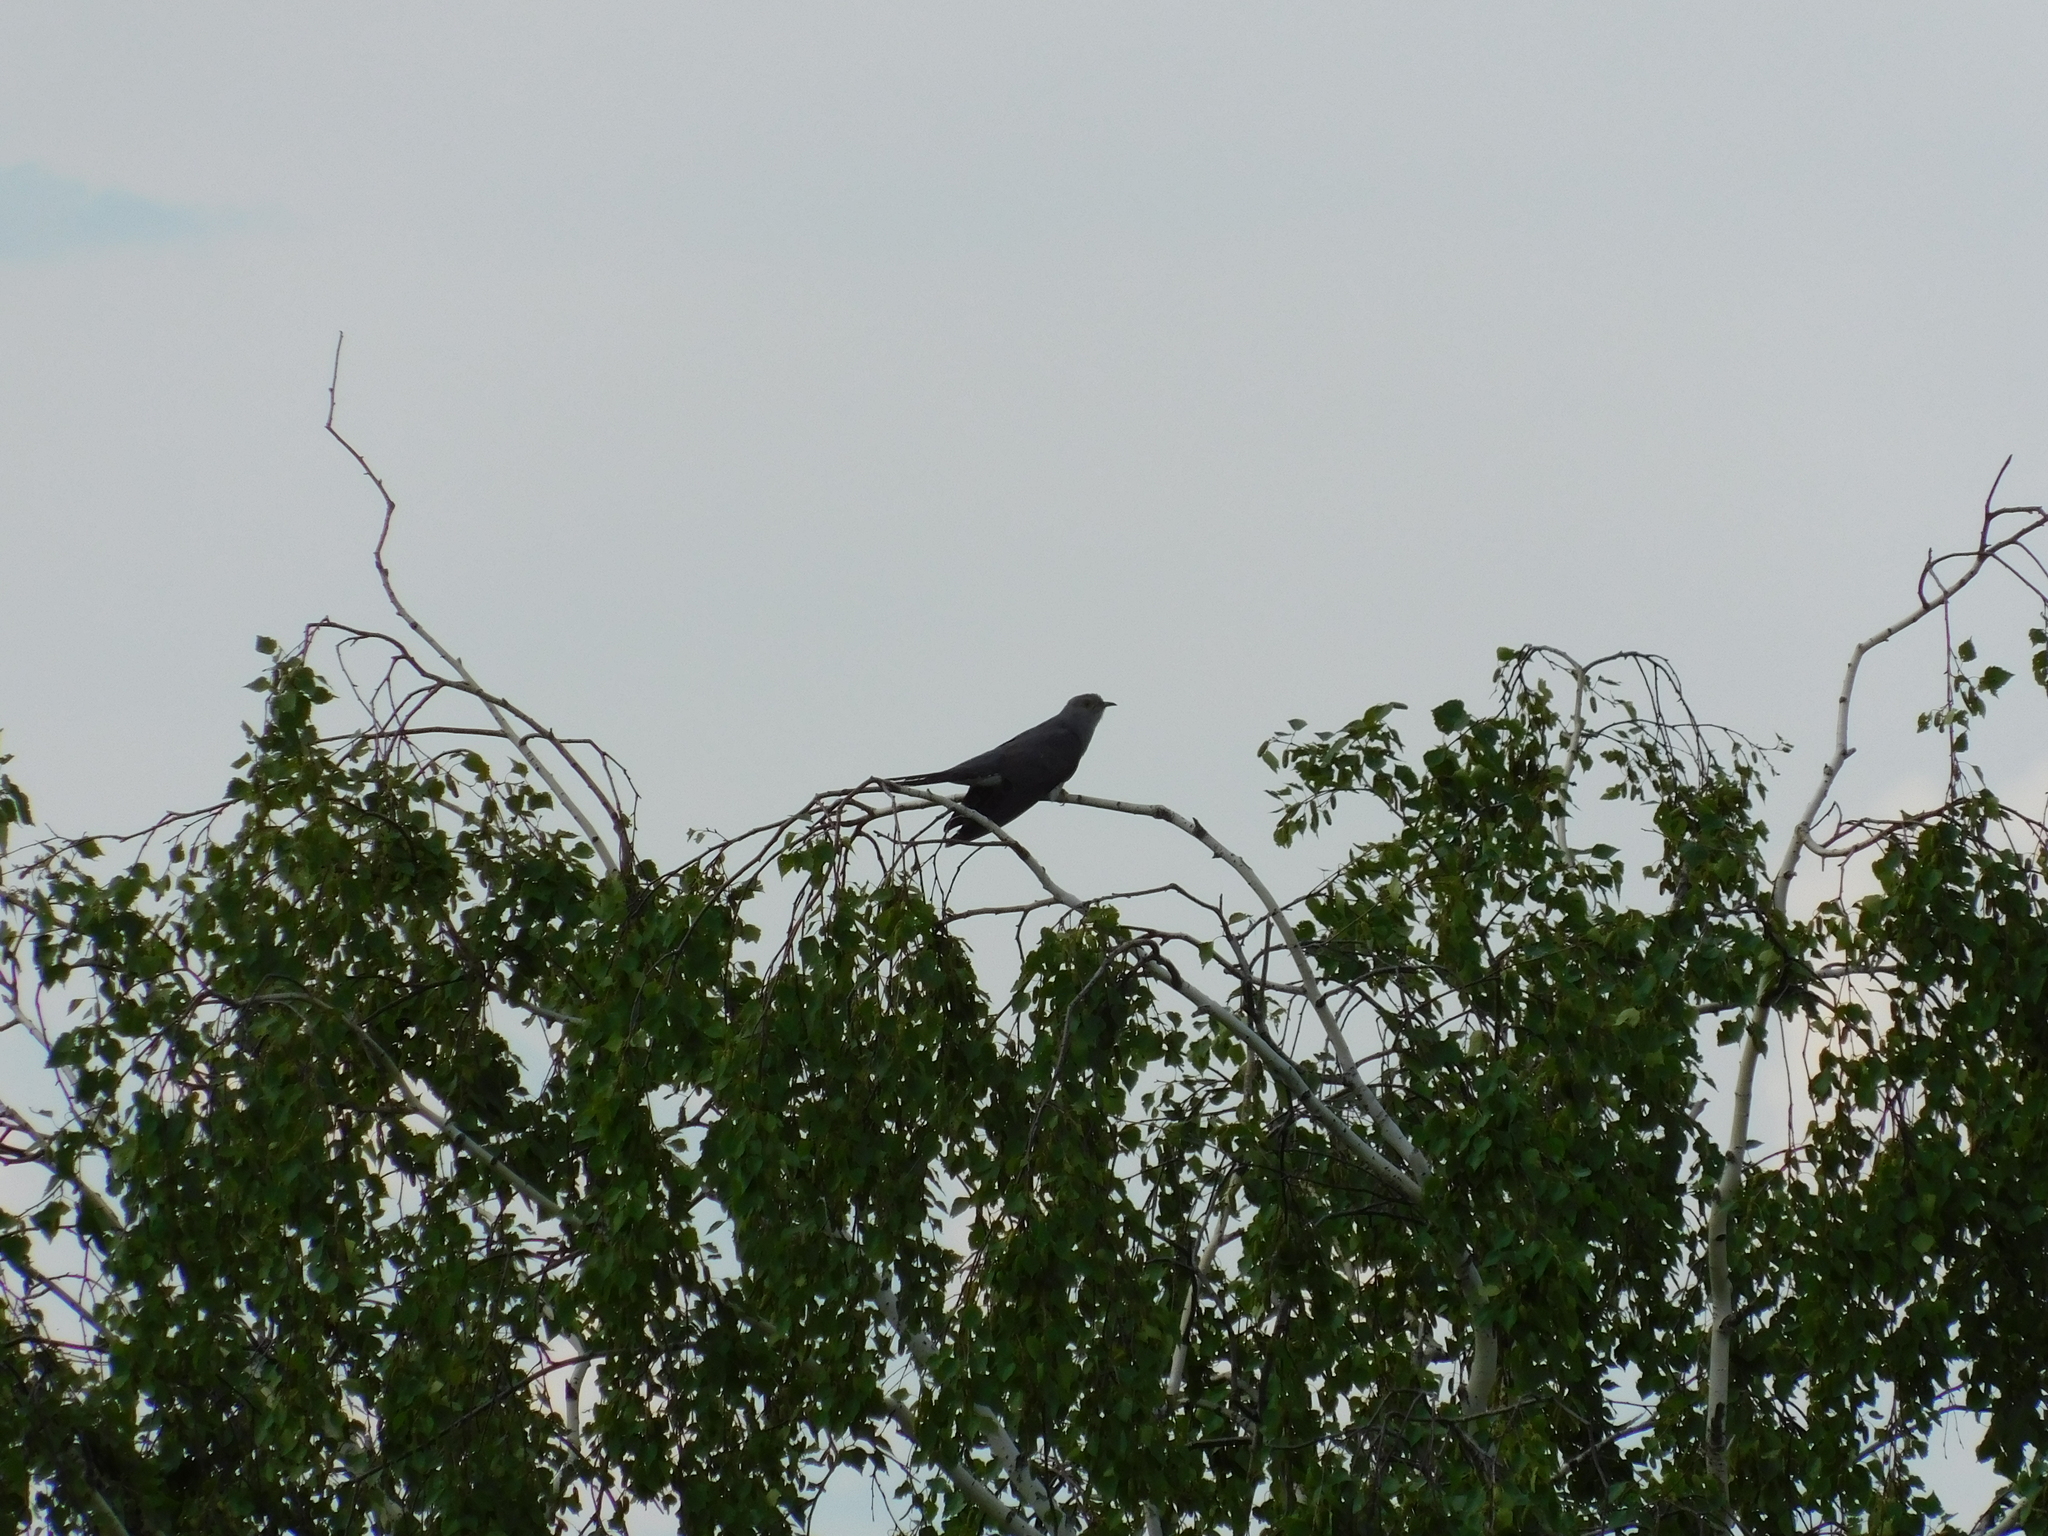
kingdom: Animalia
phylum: Chordata
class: Aves
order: Cuculiformes
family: Cuculidae
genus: Cuculus
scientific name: Cuculus canorus
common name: Common cuckoo
